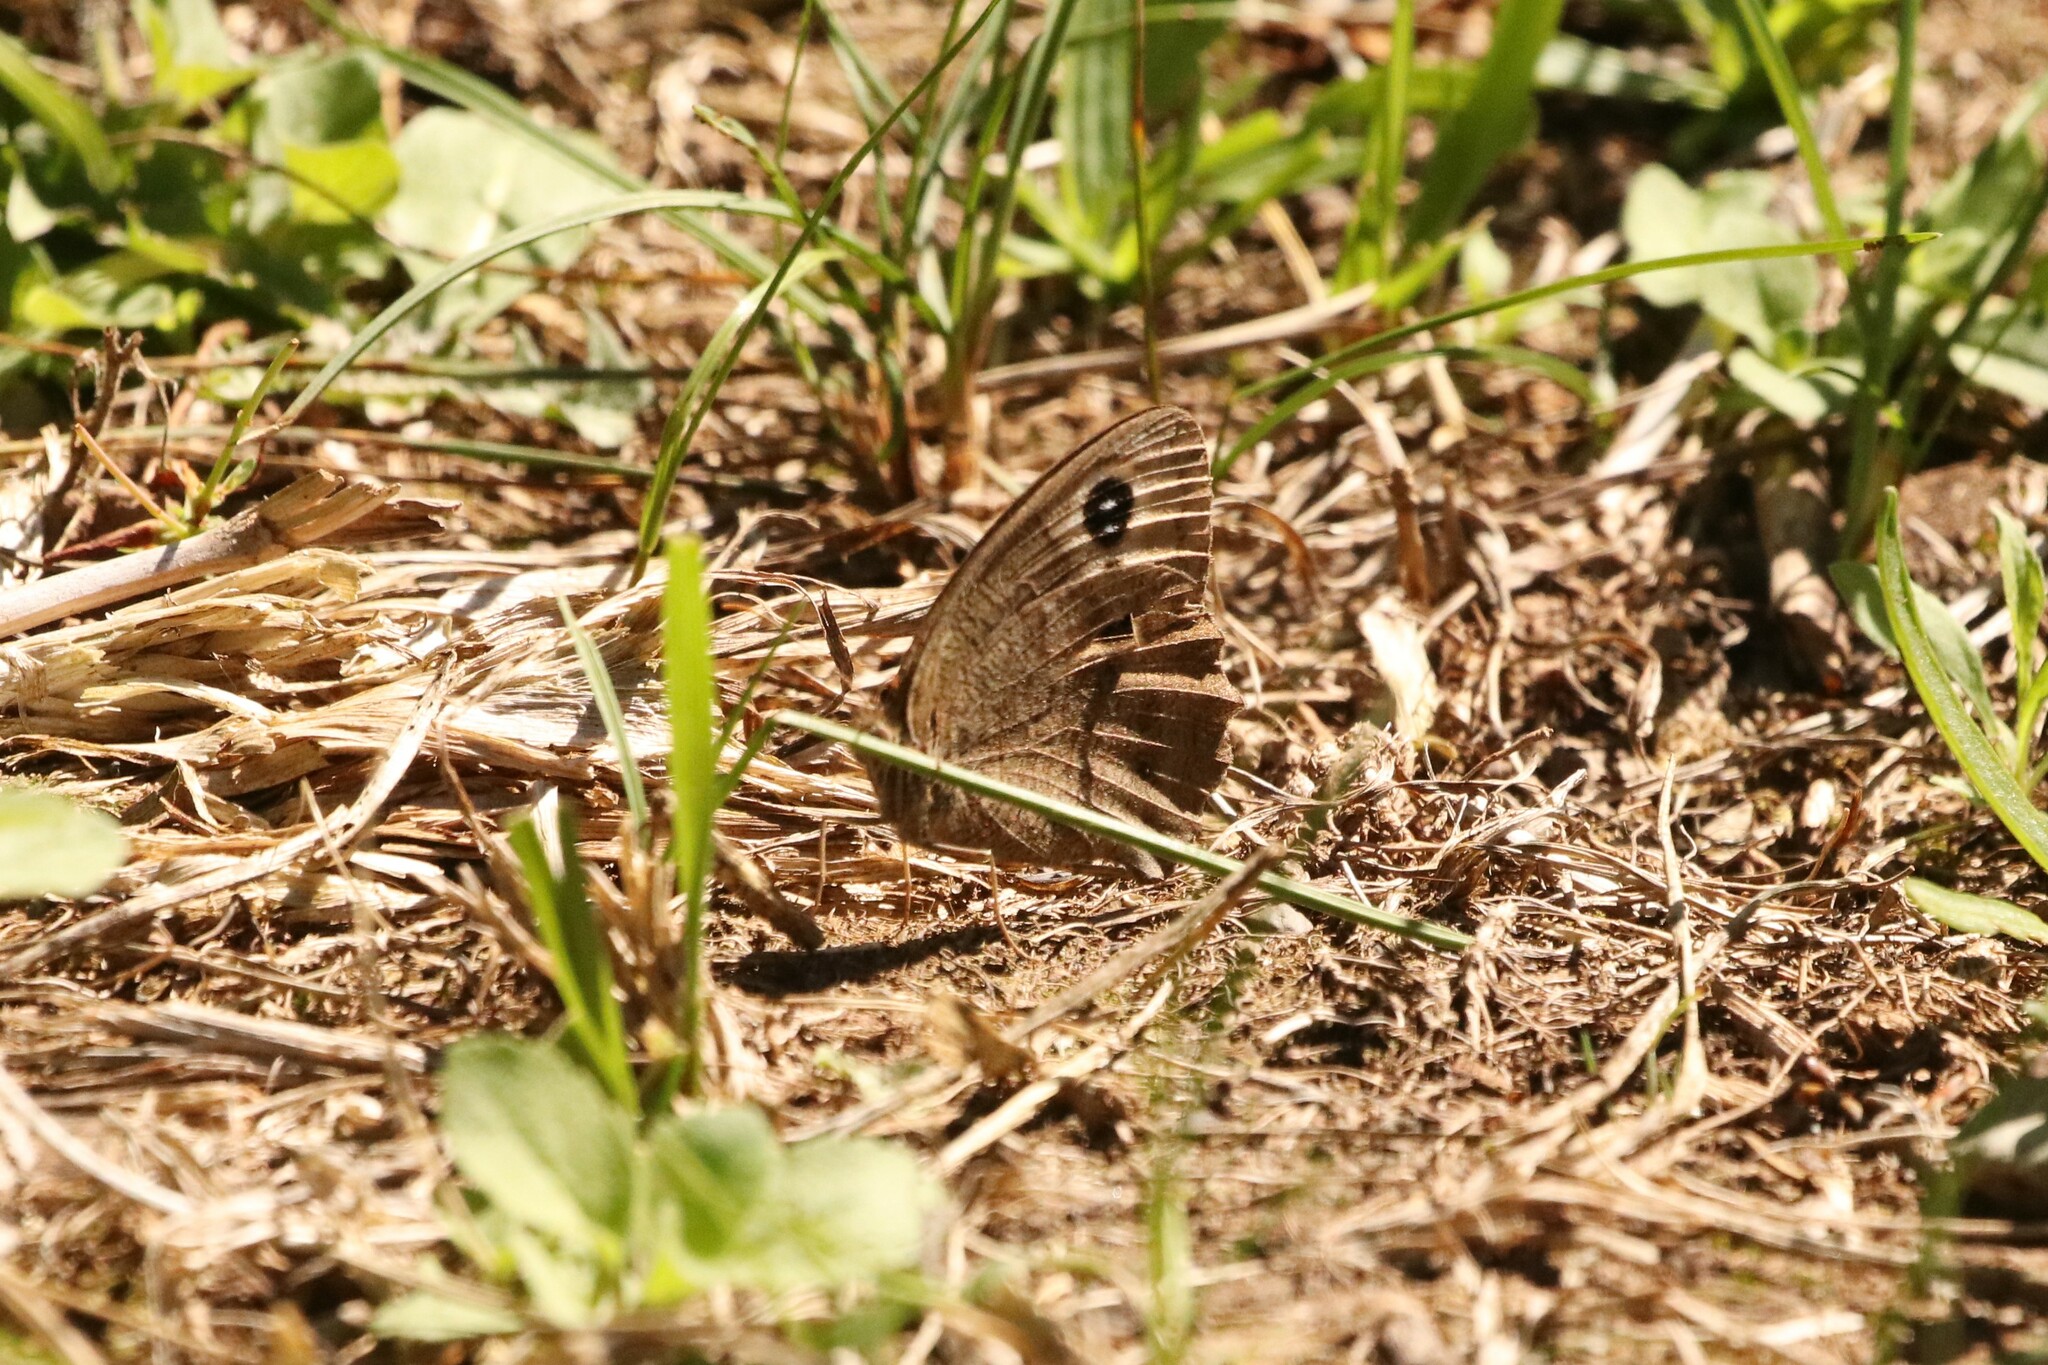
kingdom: Animalia
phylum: Arthropoda
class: Insecta
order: Lepidoptera
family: Nymphalidae
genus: Cercyonis
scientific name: Cercyonis pegala
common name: Common wood-nymph
